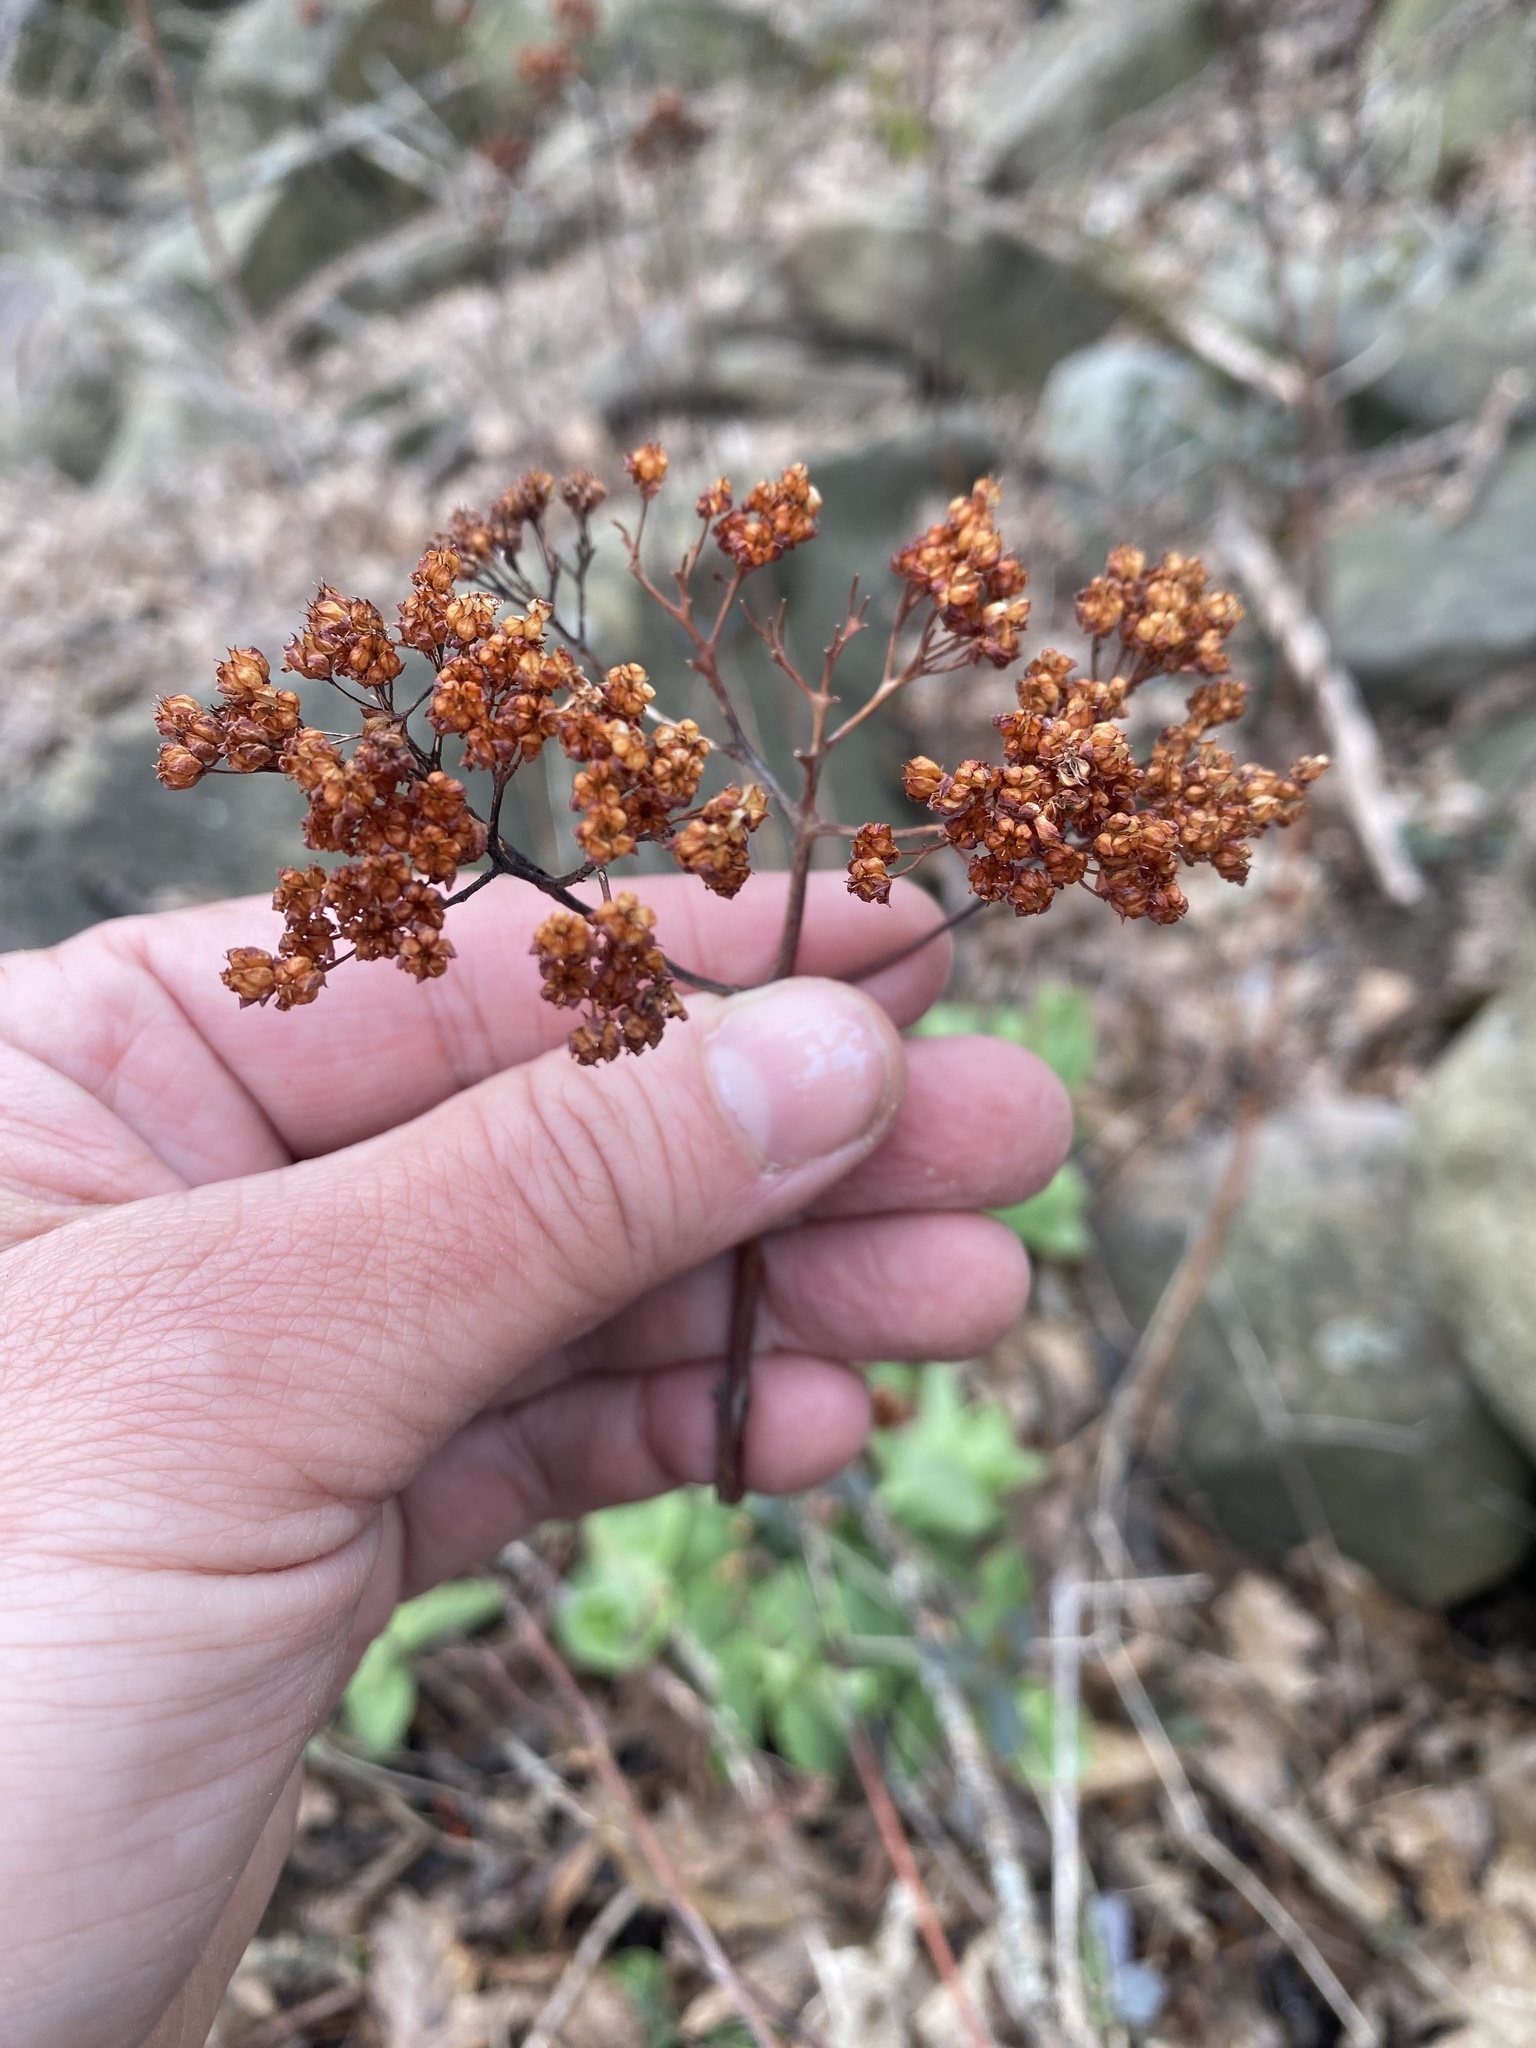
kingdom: Plantae
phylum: Tracheophyta
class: Magnoliopsida
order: Saxifragales
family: Crassulaceae
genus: Hylotelephium
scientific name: Hylotelephium maximum
